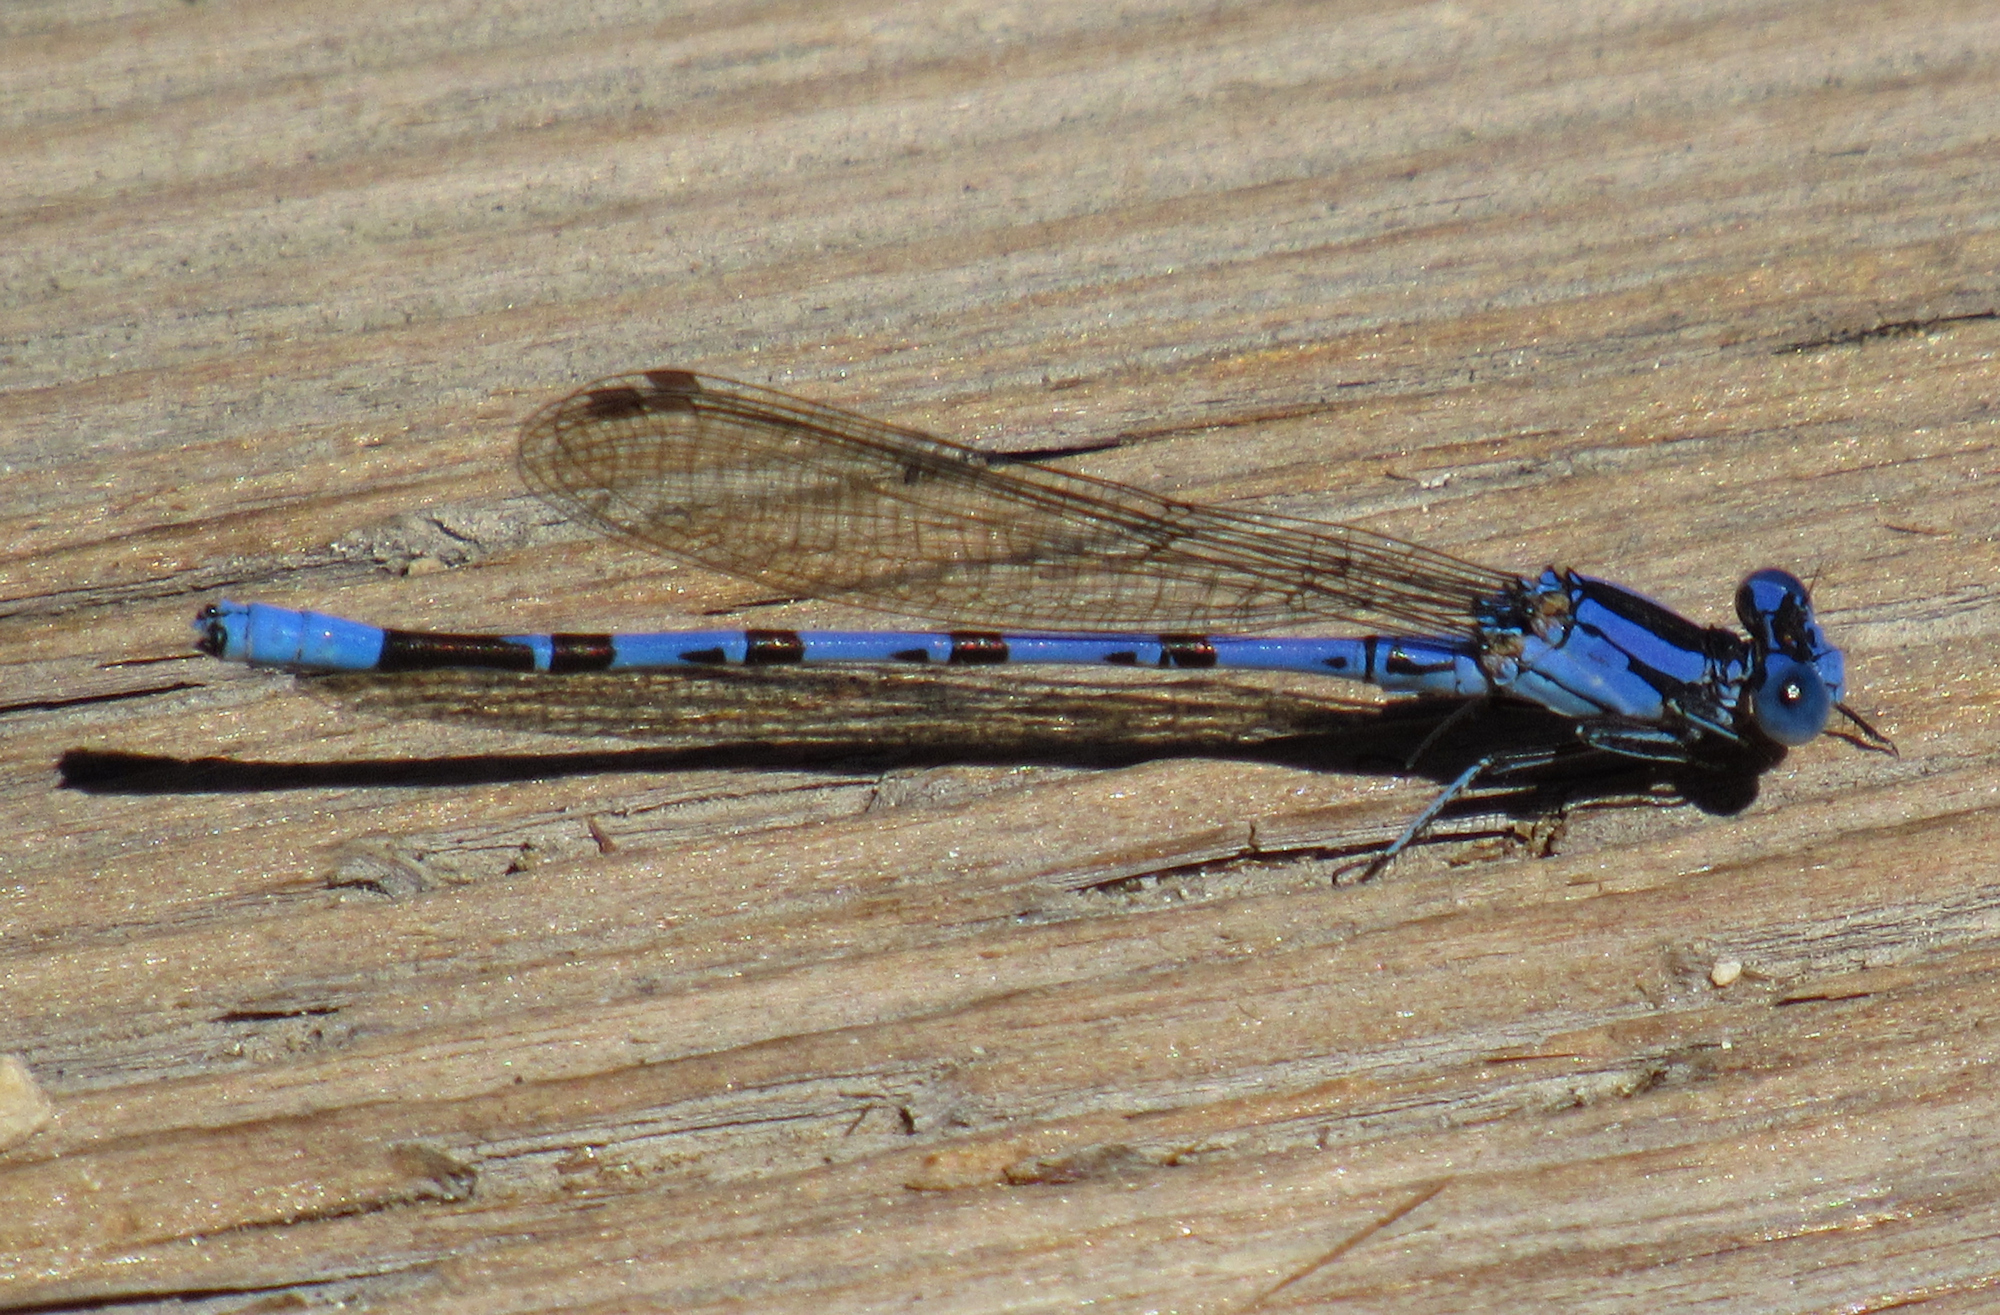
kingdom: Animalia
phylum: Arthropoda
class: Insecta
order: Odonata
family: Coenagrionidae
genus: Argia
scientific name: Argia vivida
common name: Vivid dancer
